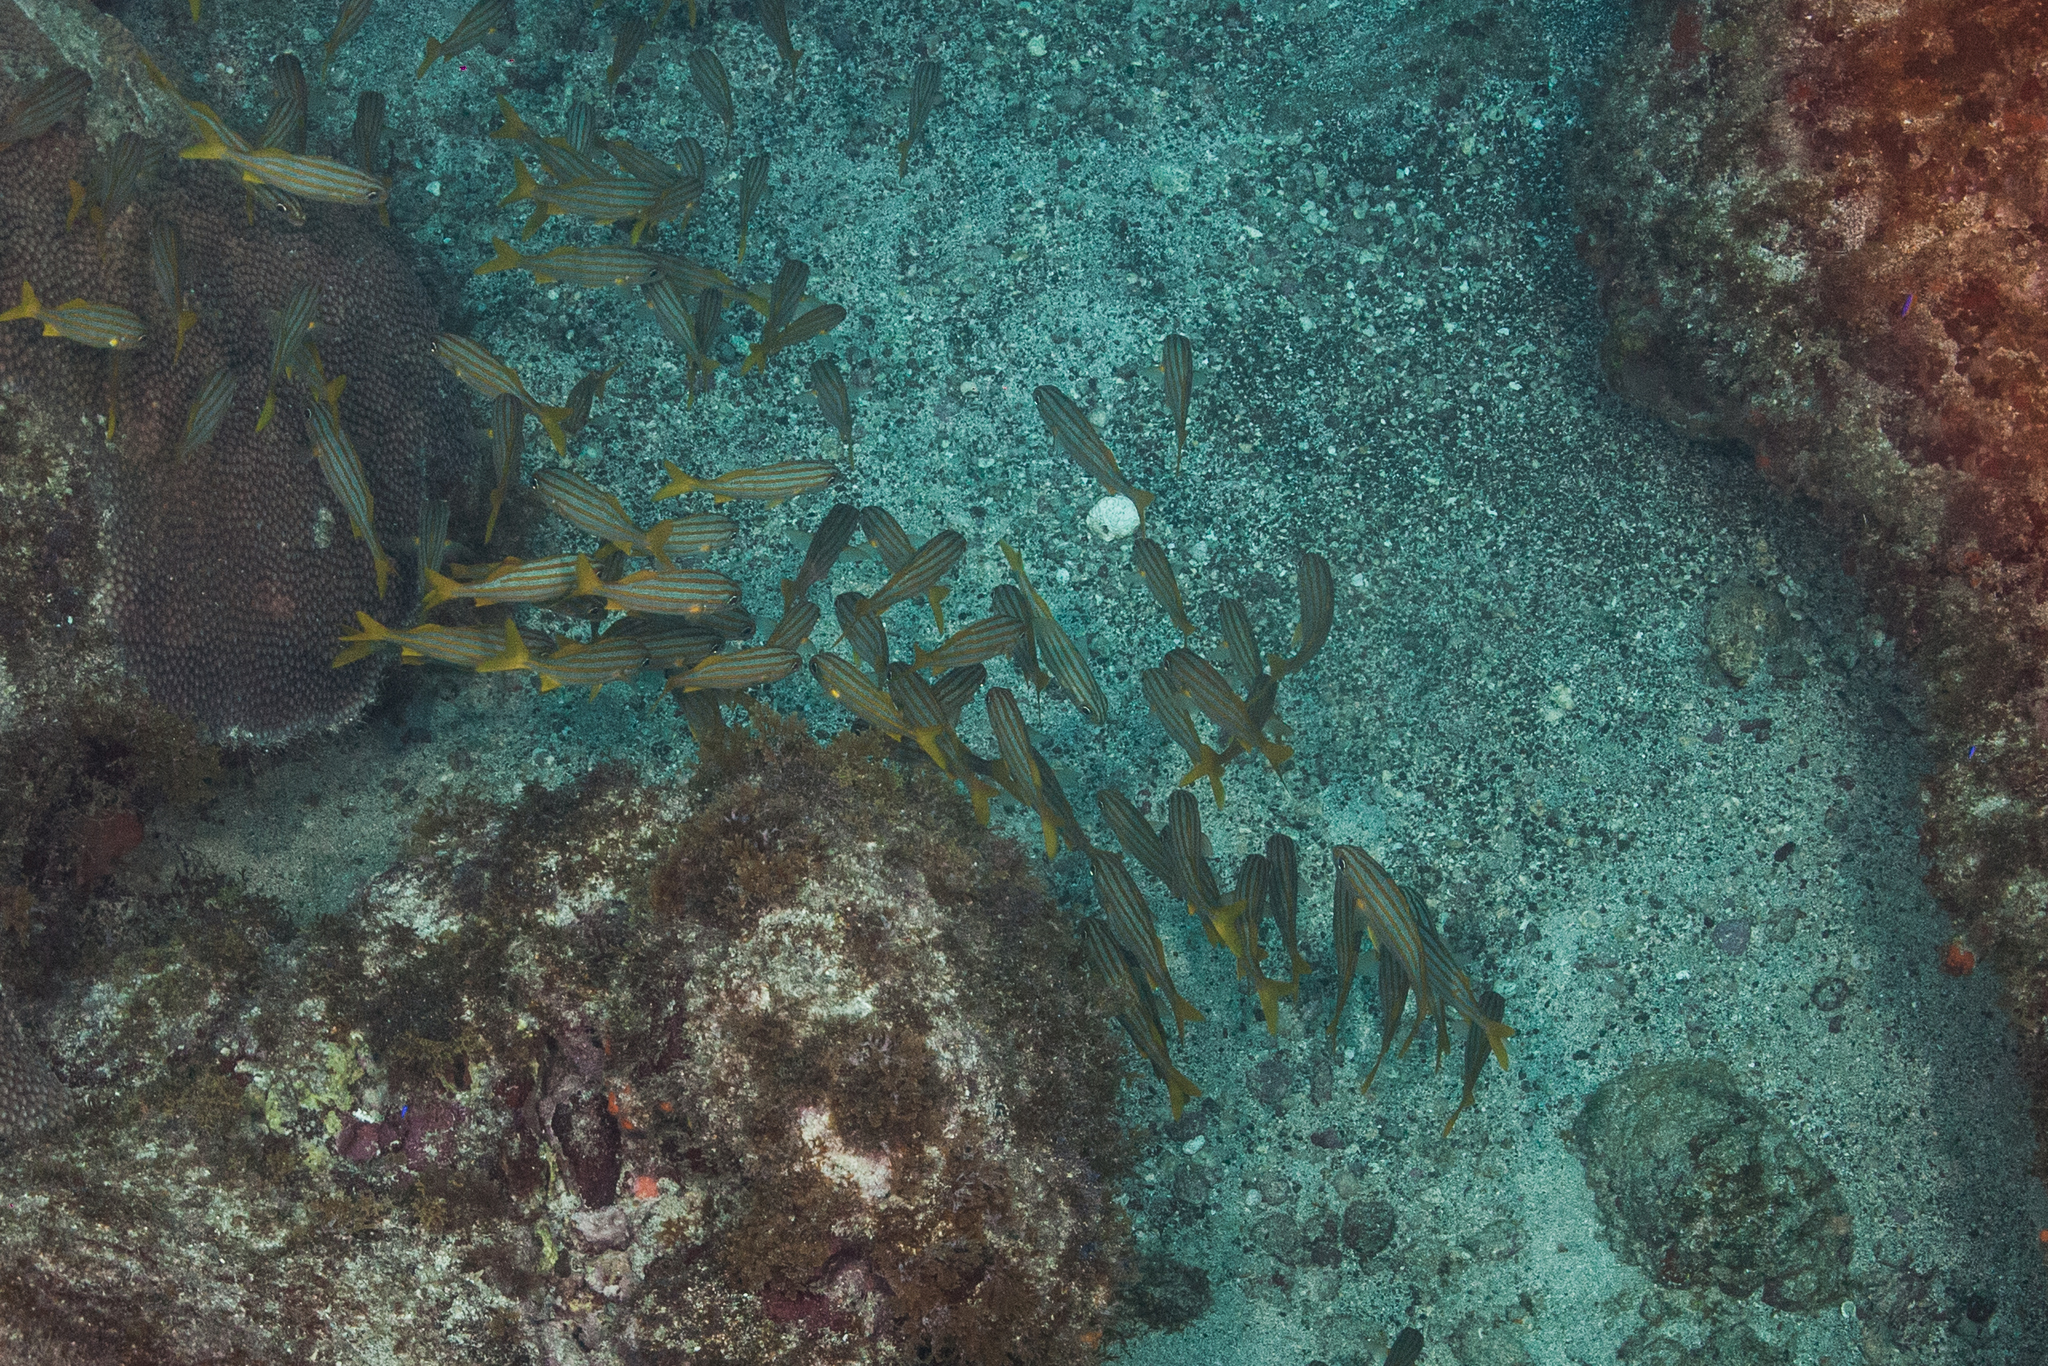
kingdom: Animalia
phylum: Chordata
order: Perciformes
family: Haemulidae
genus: Haemulon
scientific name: Haemulon chrysargyreum
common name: Smallmouth grunt
